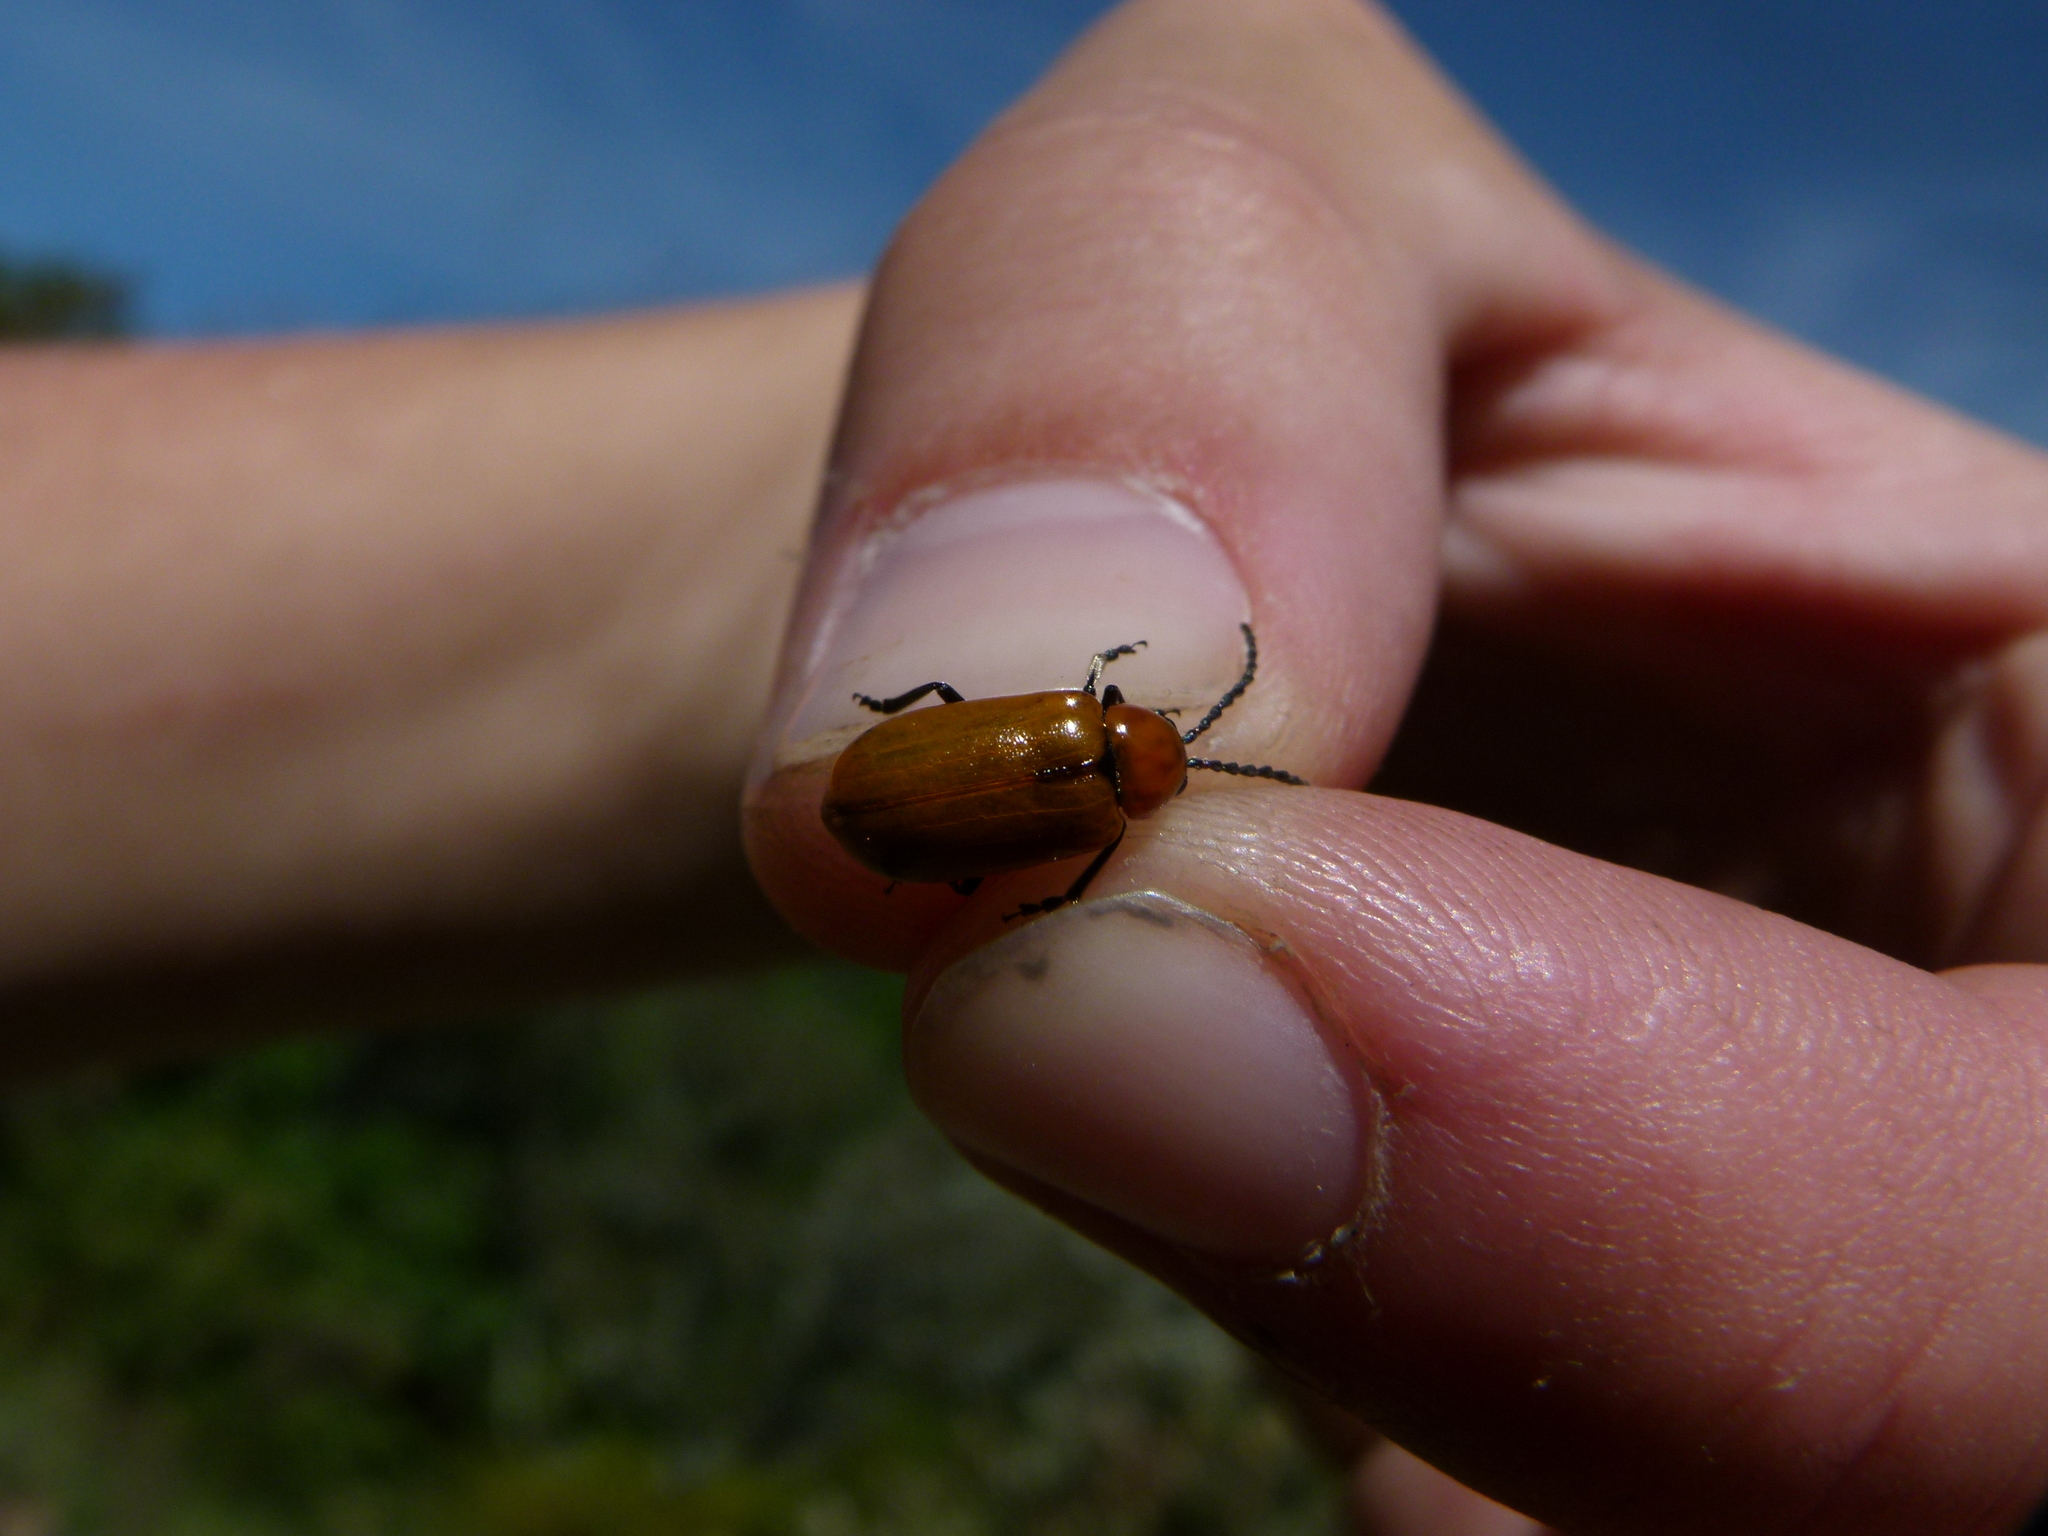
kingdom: Animalia
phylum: Arthropoda
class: Insecta
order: Coleoptera
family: Chrysomelidae
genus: Exosoma
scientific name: Exosoma lusitanicum
